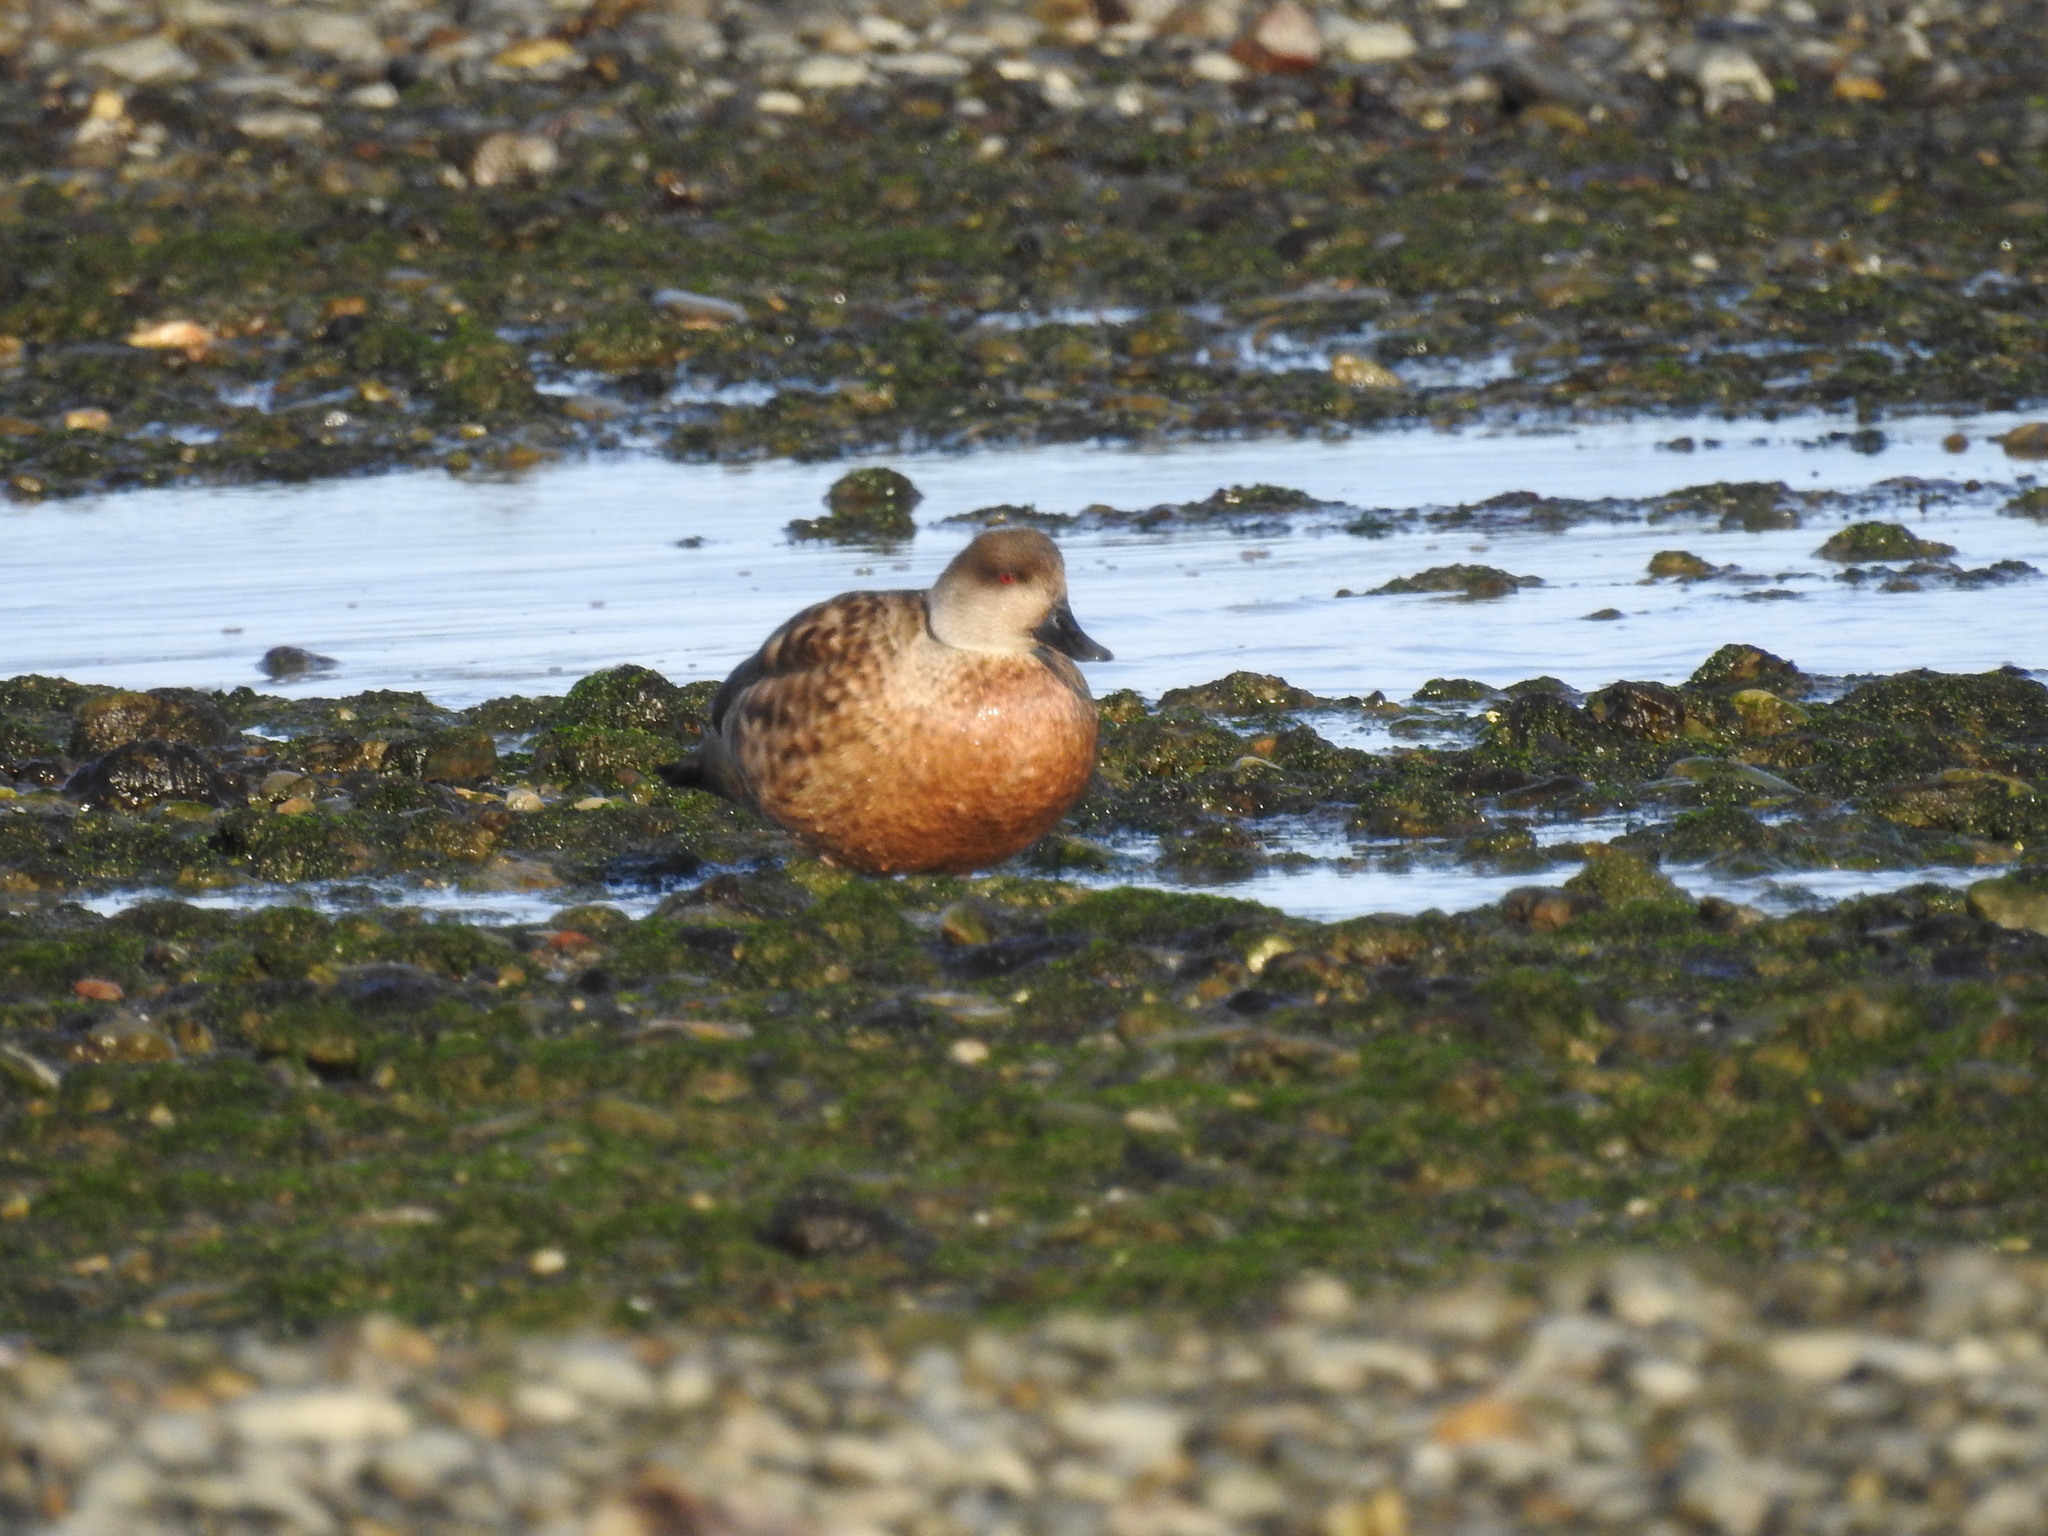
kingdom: Animalia
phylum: Chordata
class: Aves
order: Anseriformes
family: Anatidae
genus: Lophonetta
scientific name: Lophonetta specularioides
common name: Crested duck
